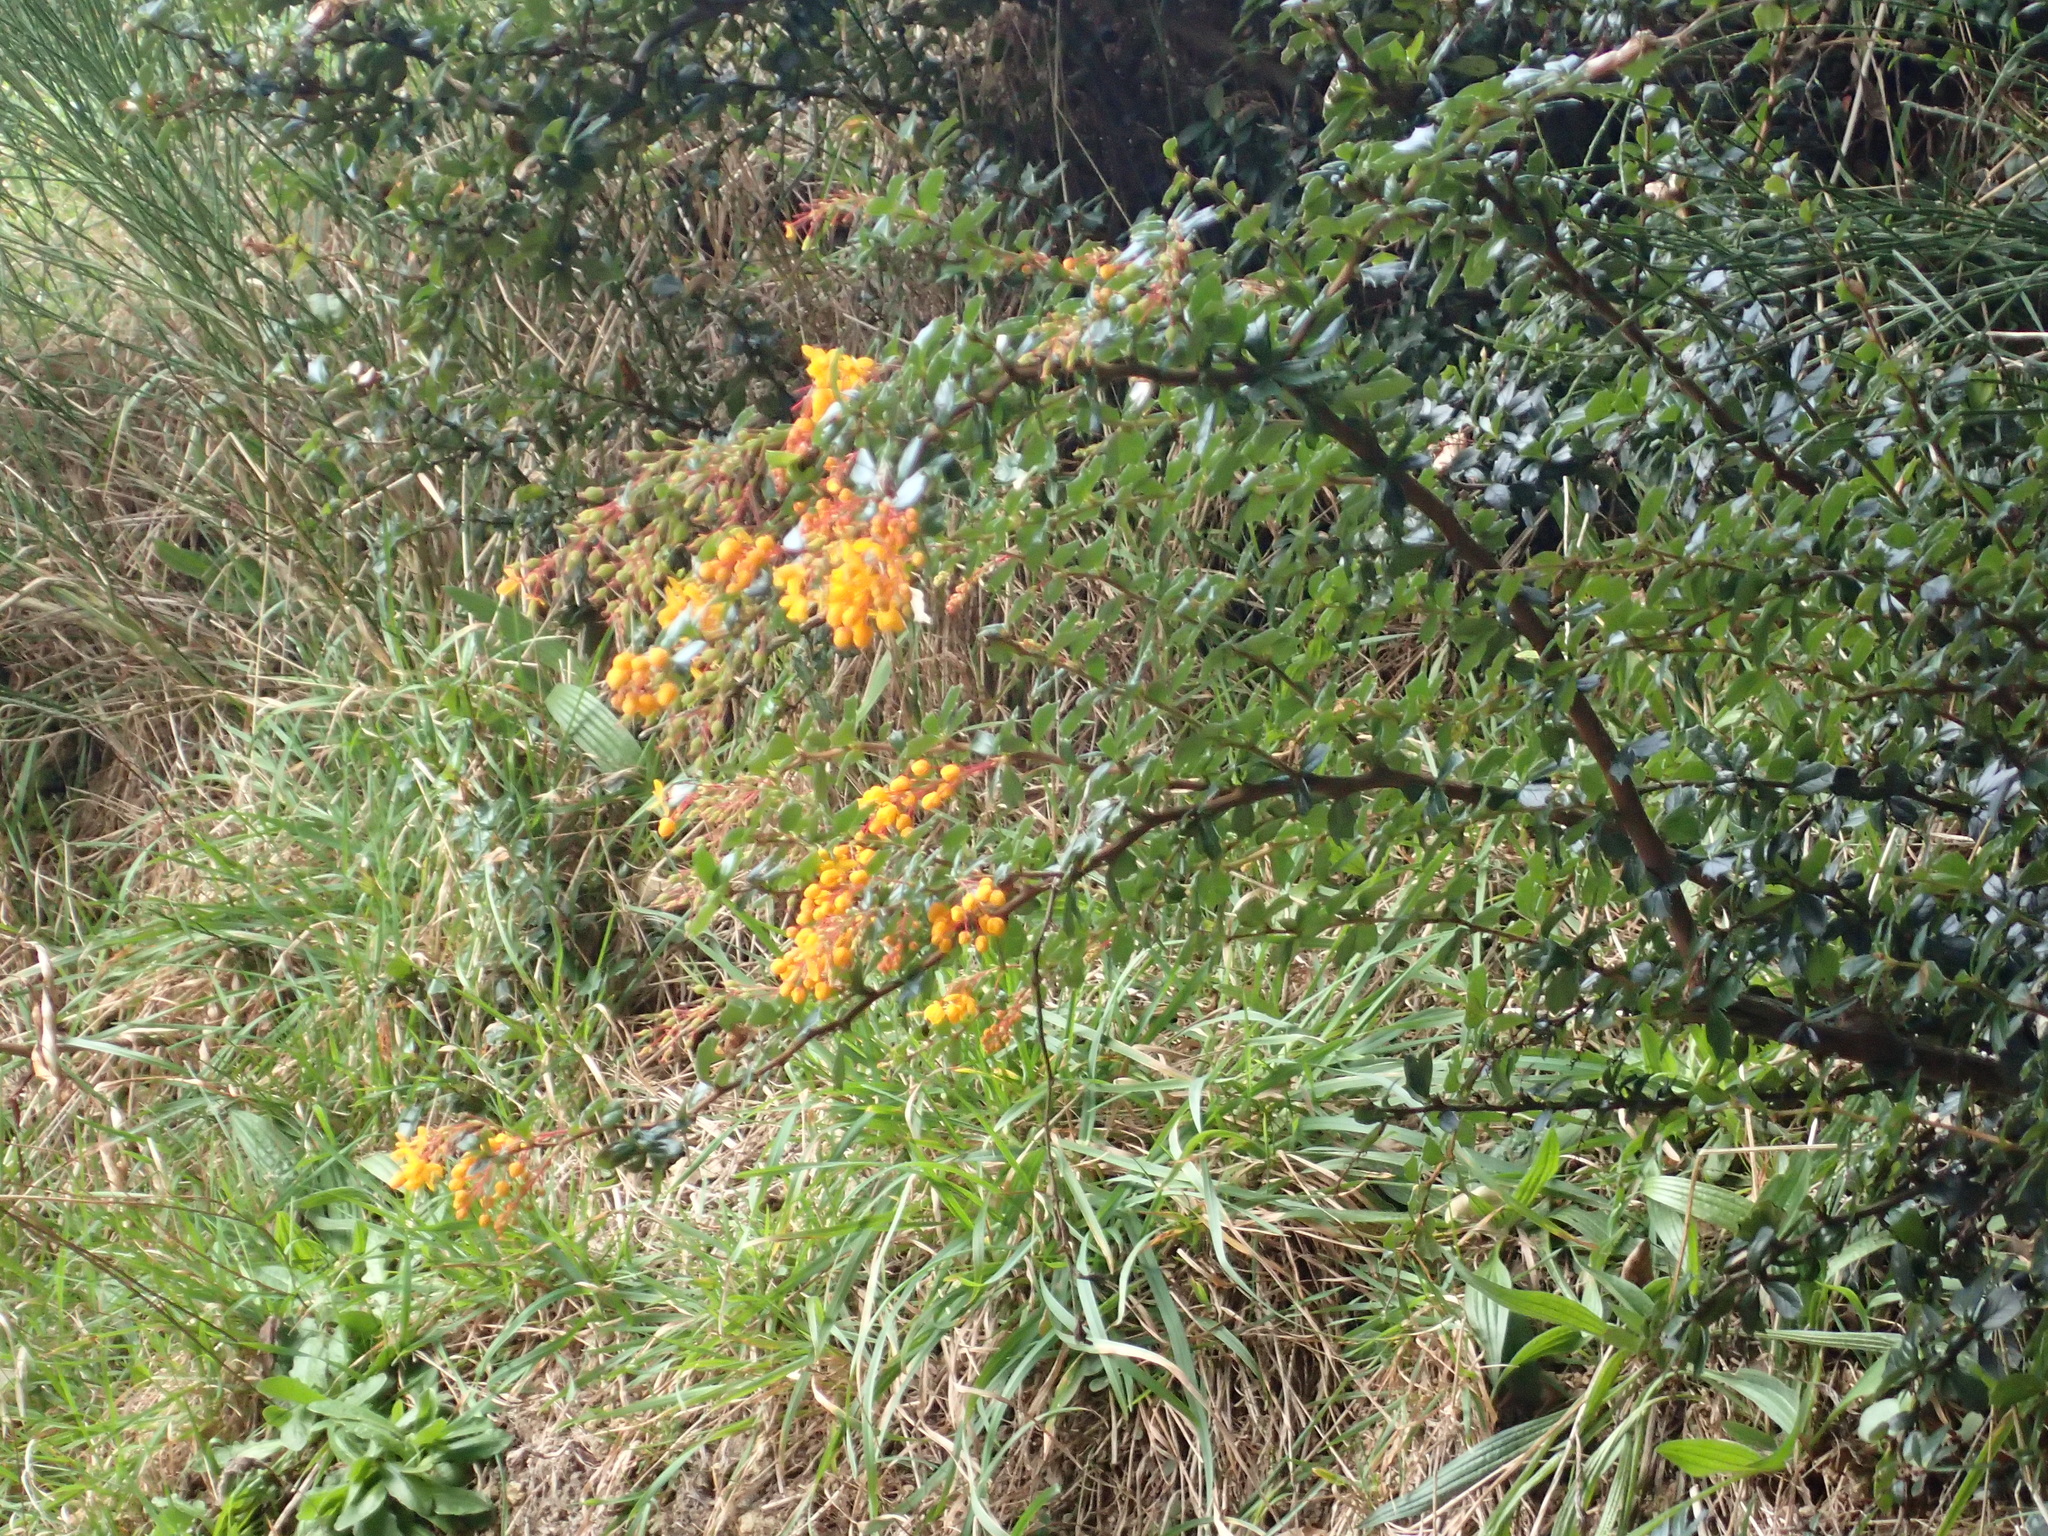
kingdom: Plantae
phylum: Tracheophyta
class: Magnoliopsida
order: Ranunculales
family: Berberidaceae
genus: Berberis
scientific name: Berberis darwinii
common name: Darwin's barberry
